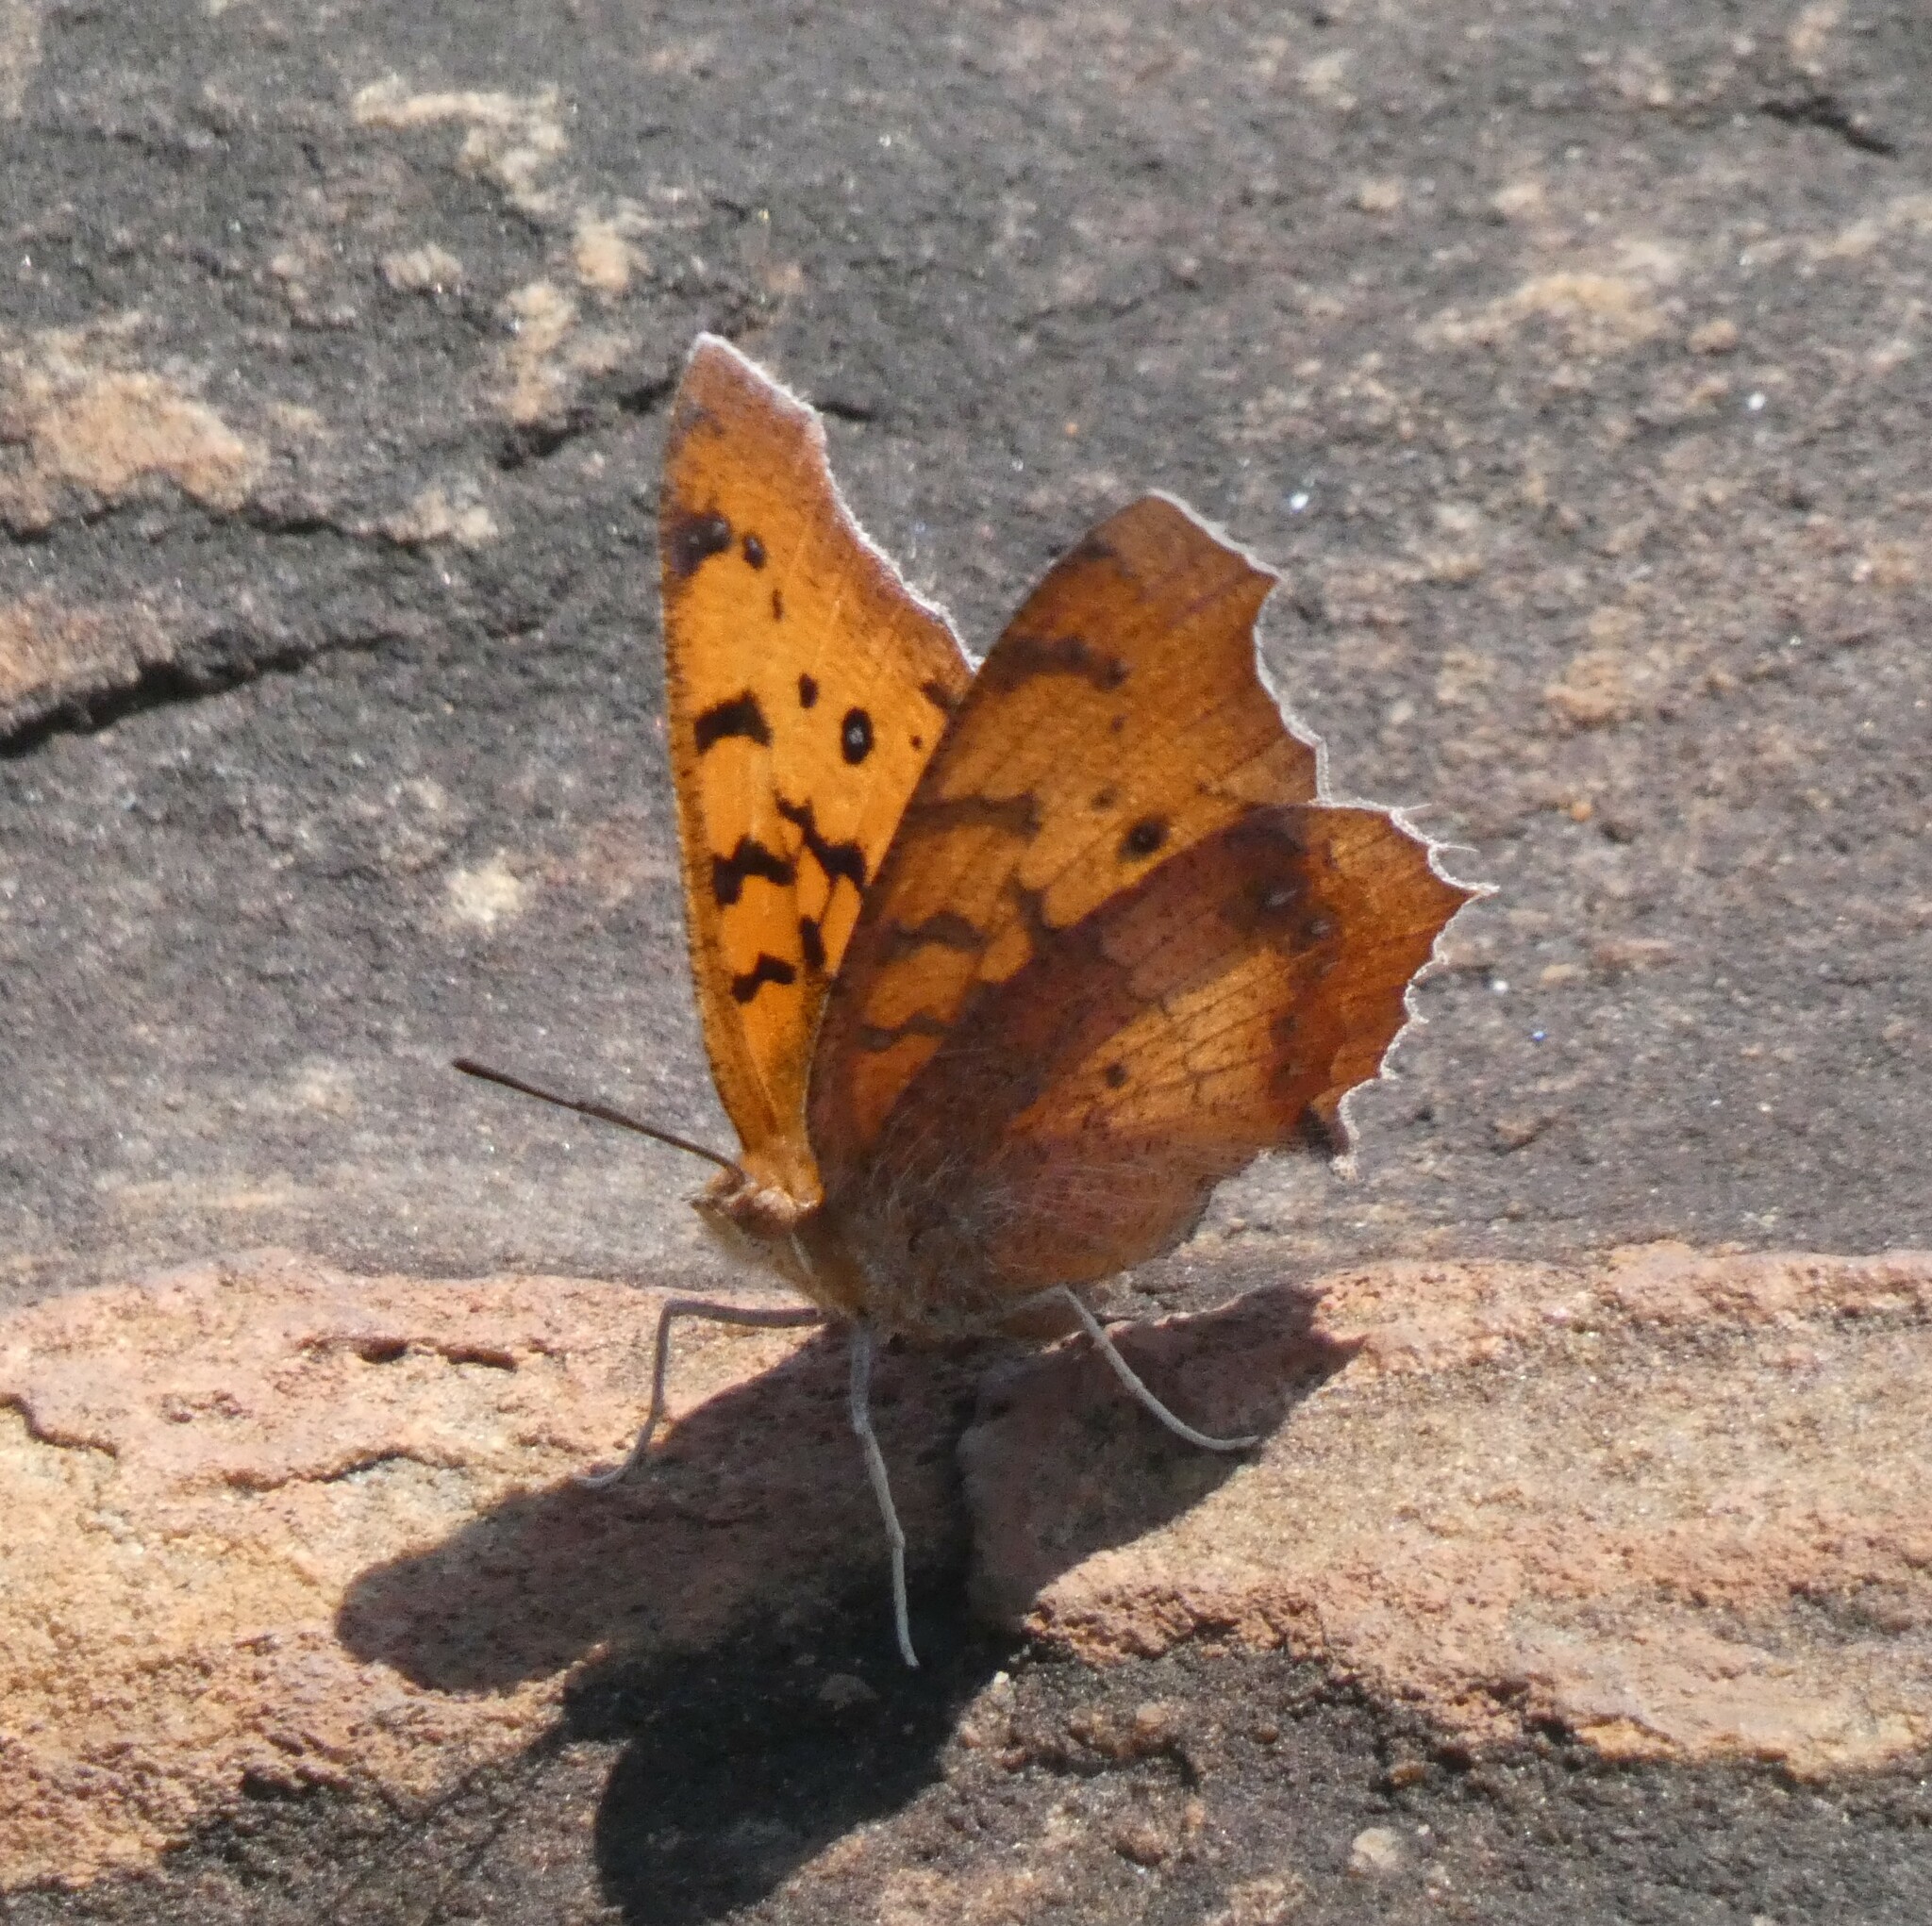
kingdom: Animalia
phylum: Arthropoda
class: Insecta
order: Lepidoptera
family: Nymphalidae
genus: Catacroptera
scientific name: Catacroptera cloanthe
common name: Pirate
